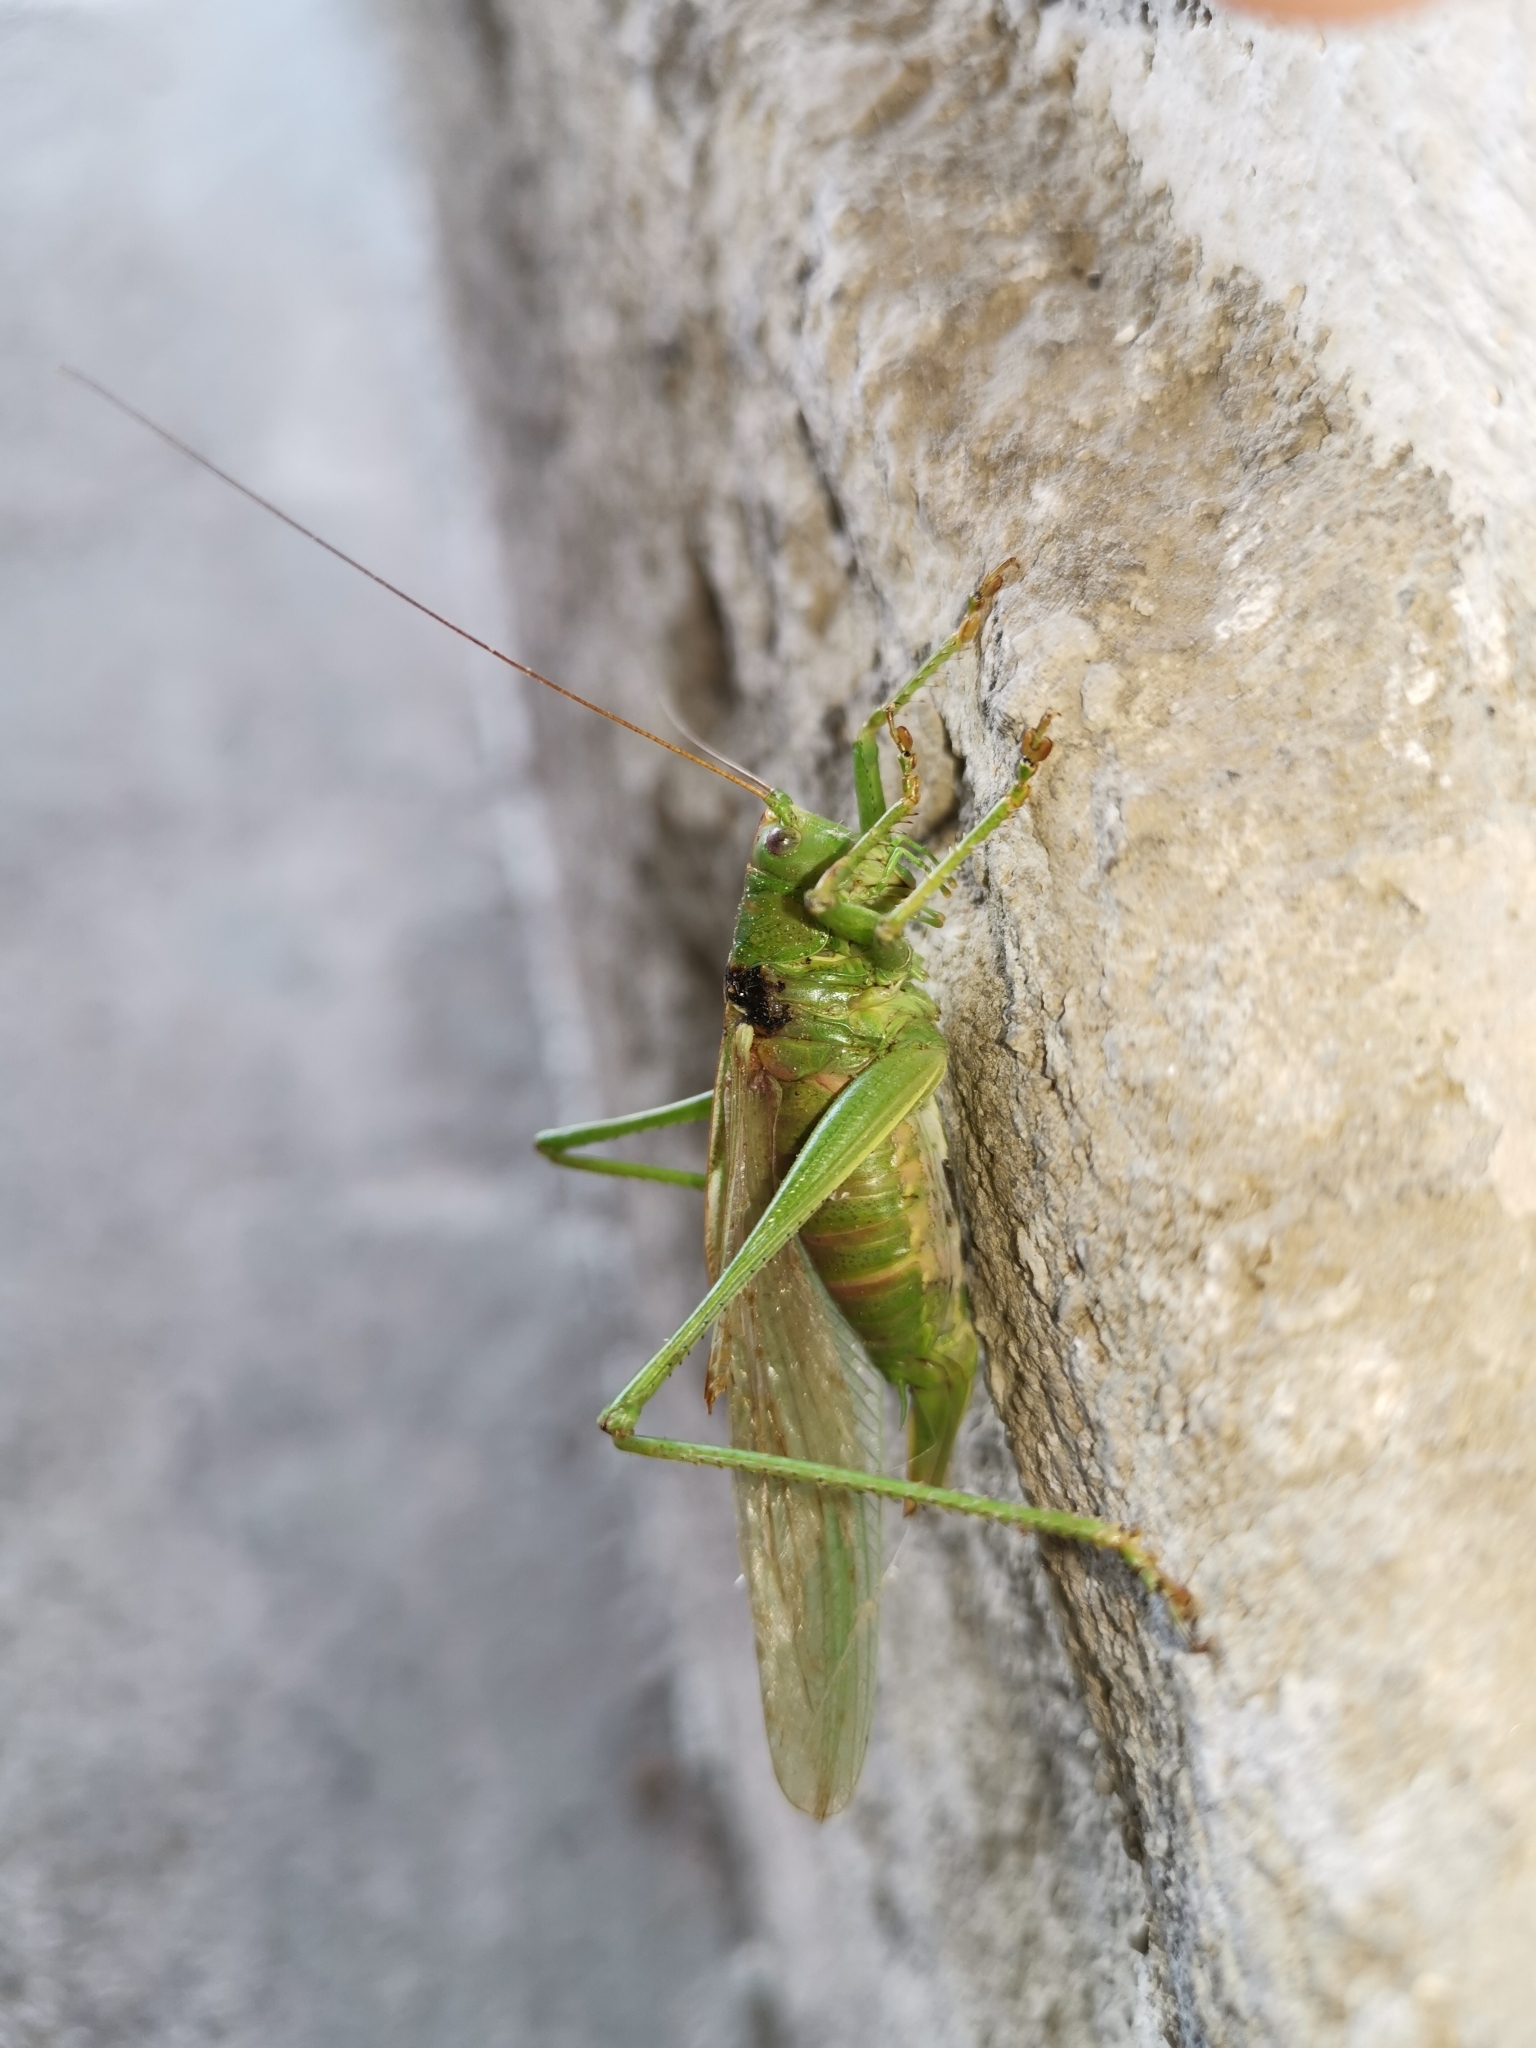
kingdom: Animalia
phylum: Arthropoda
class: Insecta
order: Orthoptera
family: Tettigoniidae
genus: Tettigonia
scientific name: Tettigonia viridissima
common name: Great green bush-cricket
